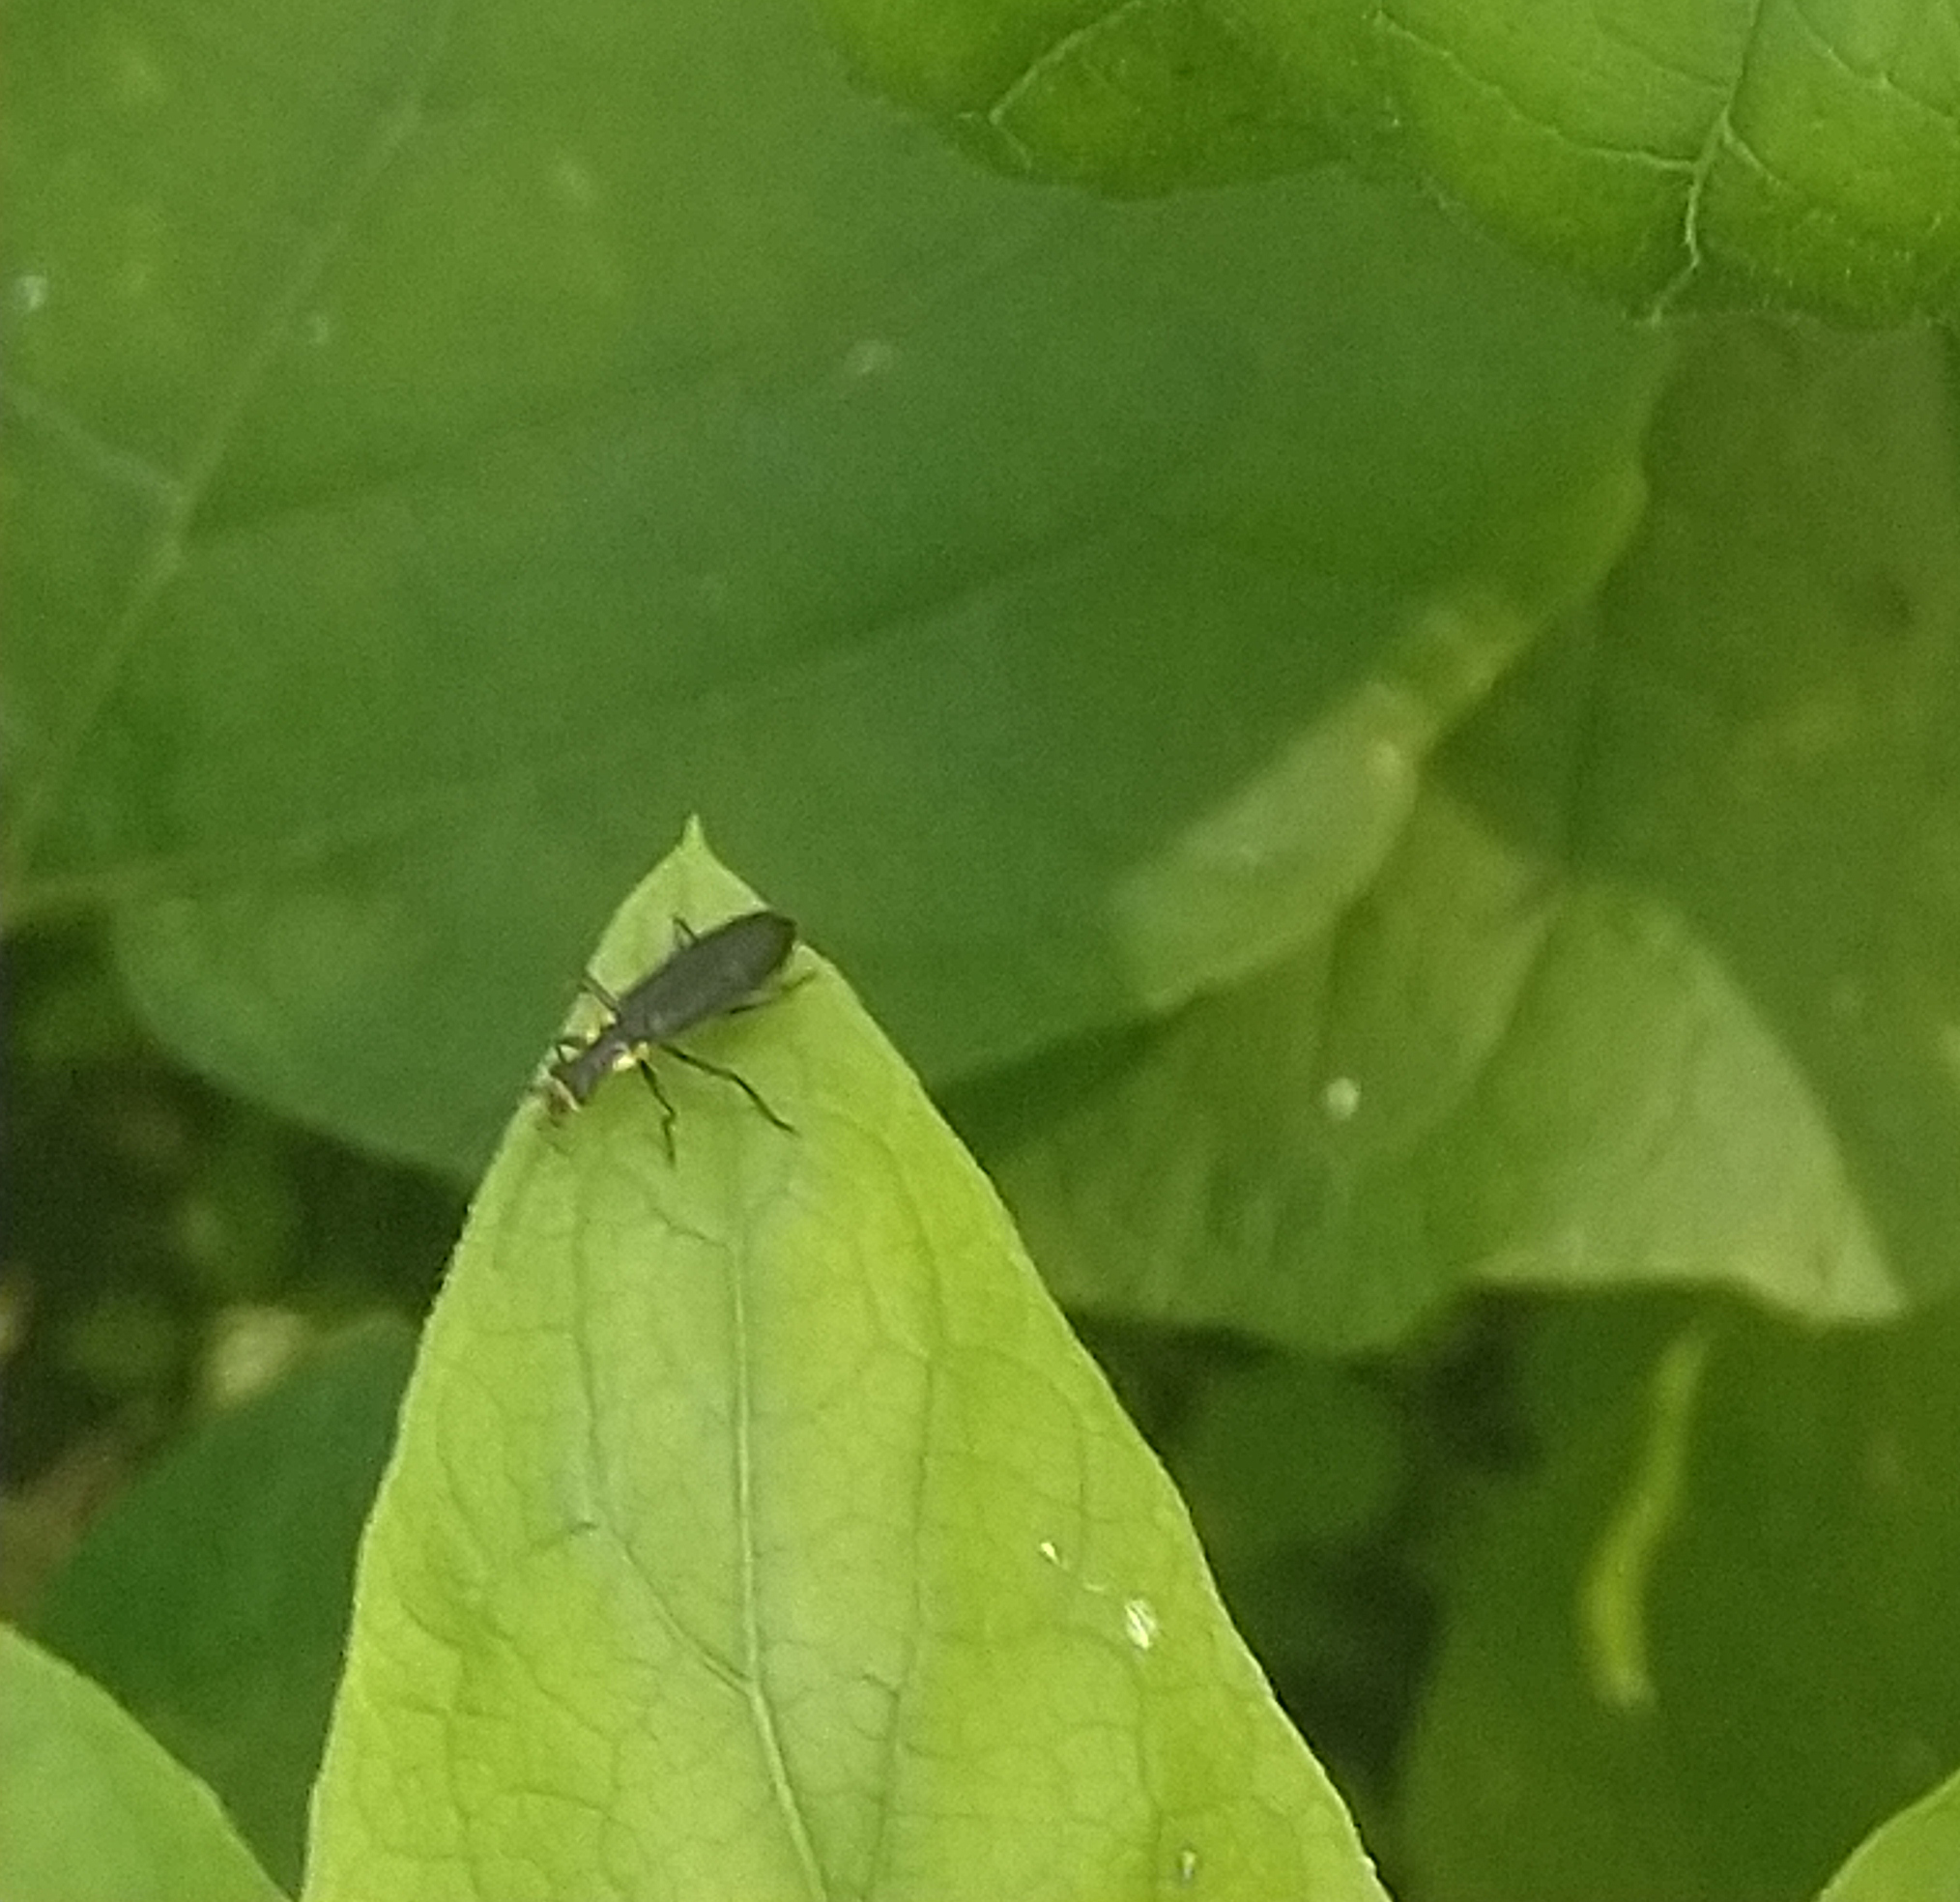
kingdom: Animalia
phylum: Arthropoda
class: Insecta
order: Coleoptera
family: Cantharidae
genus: Podabrus
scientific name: Podabrus rugosulus
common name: Wrinkled soldier beetle
